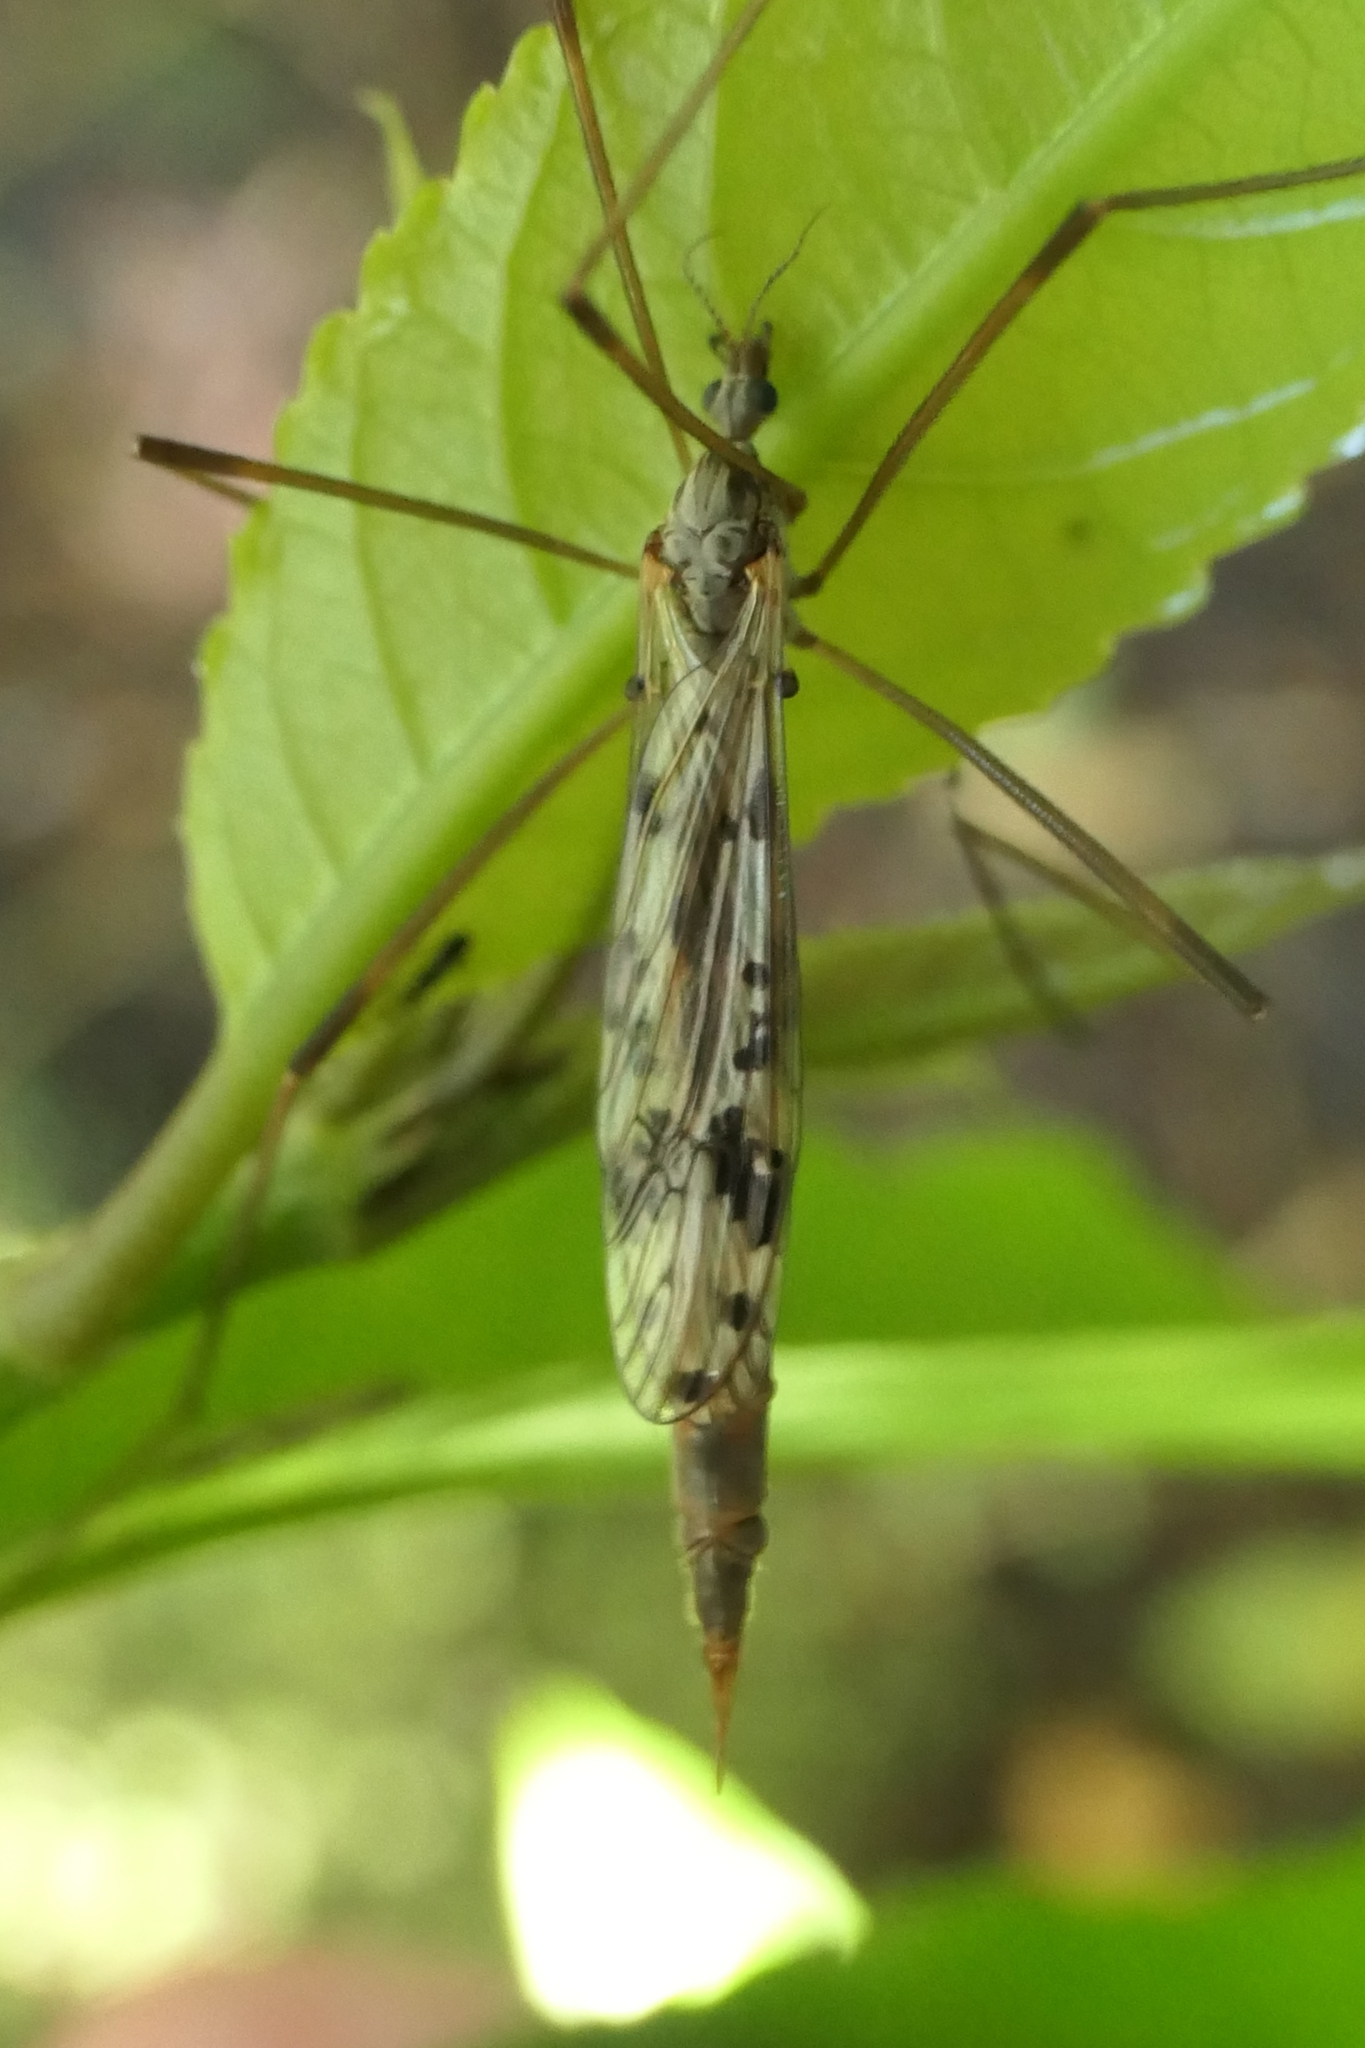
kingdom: Animalia
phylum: Arthropoda
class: Insecta
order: Diptera
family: Limoniidae
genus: Gynoplistia
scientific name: Gynoplistia magnifica
